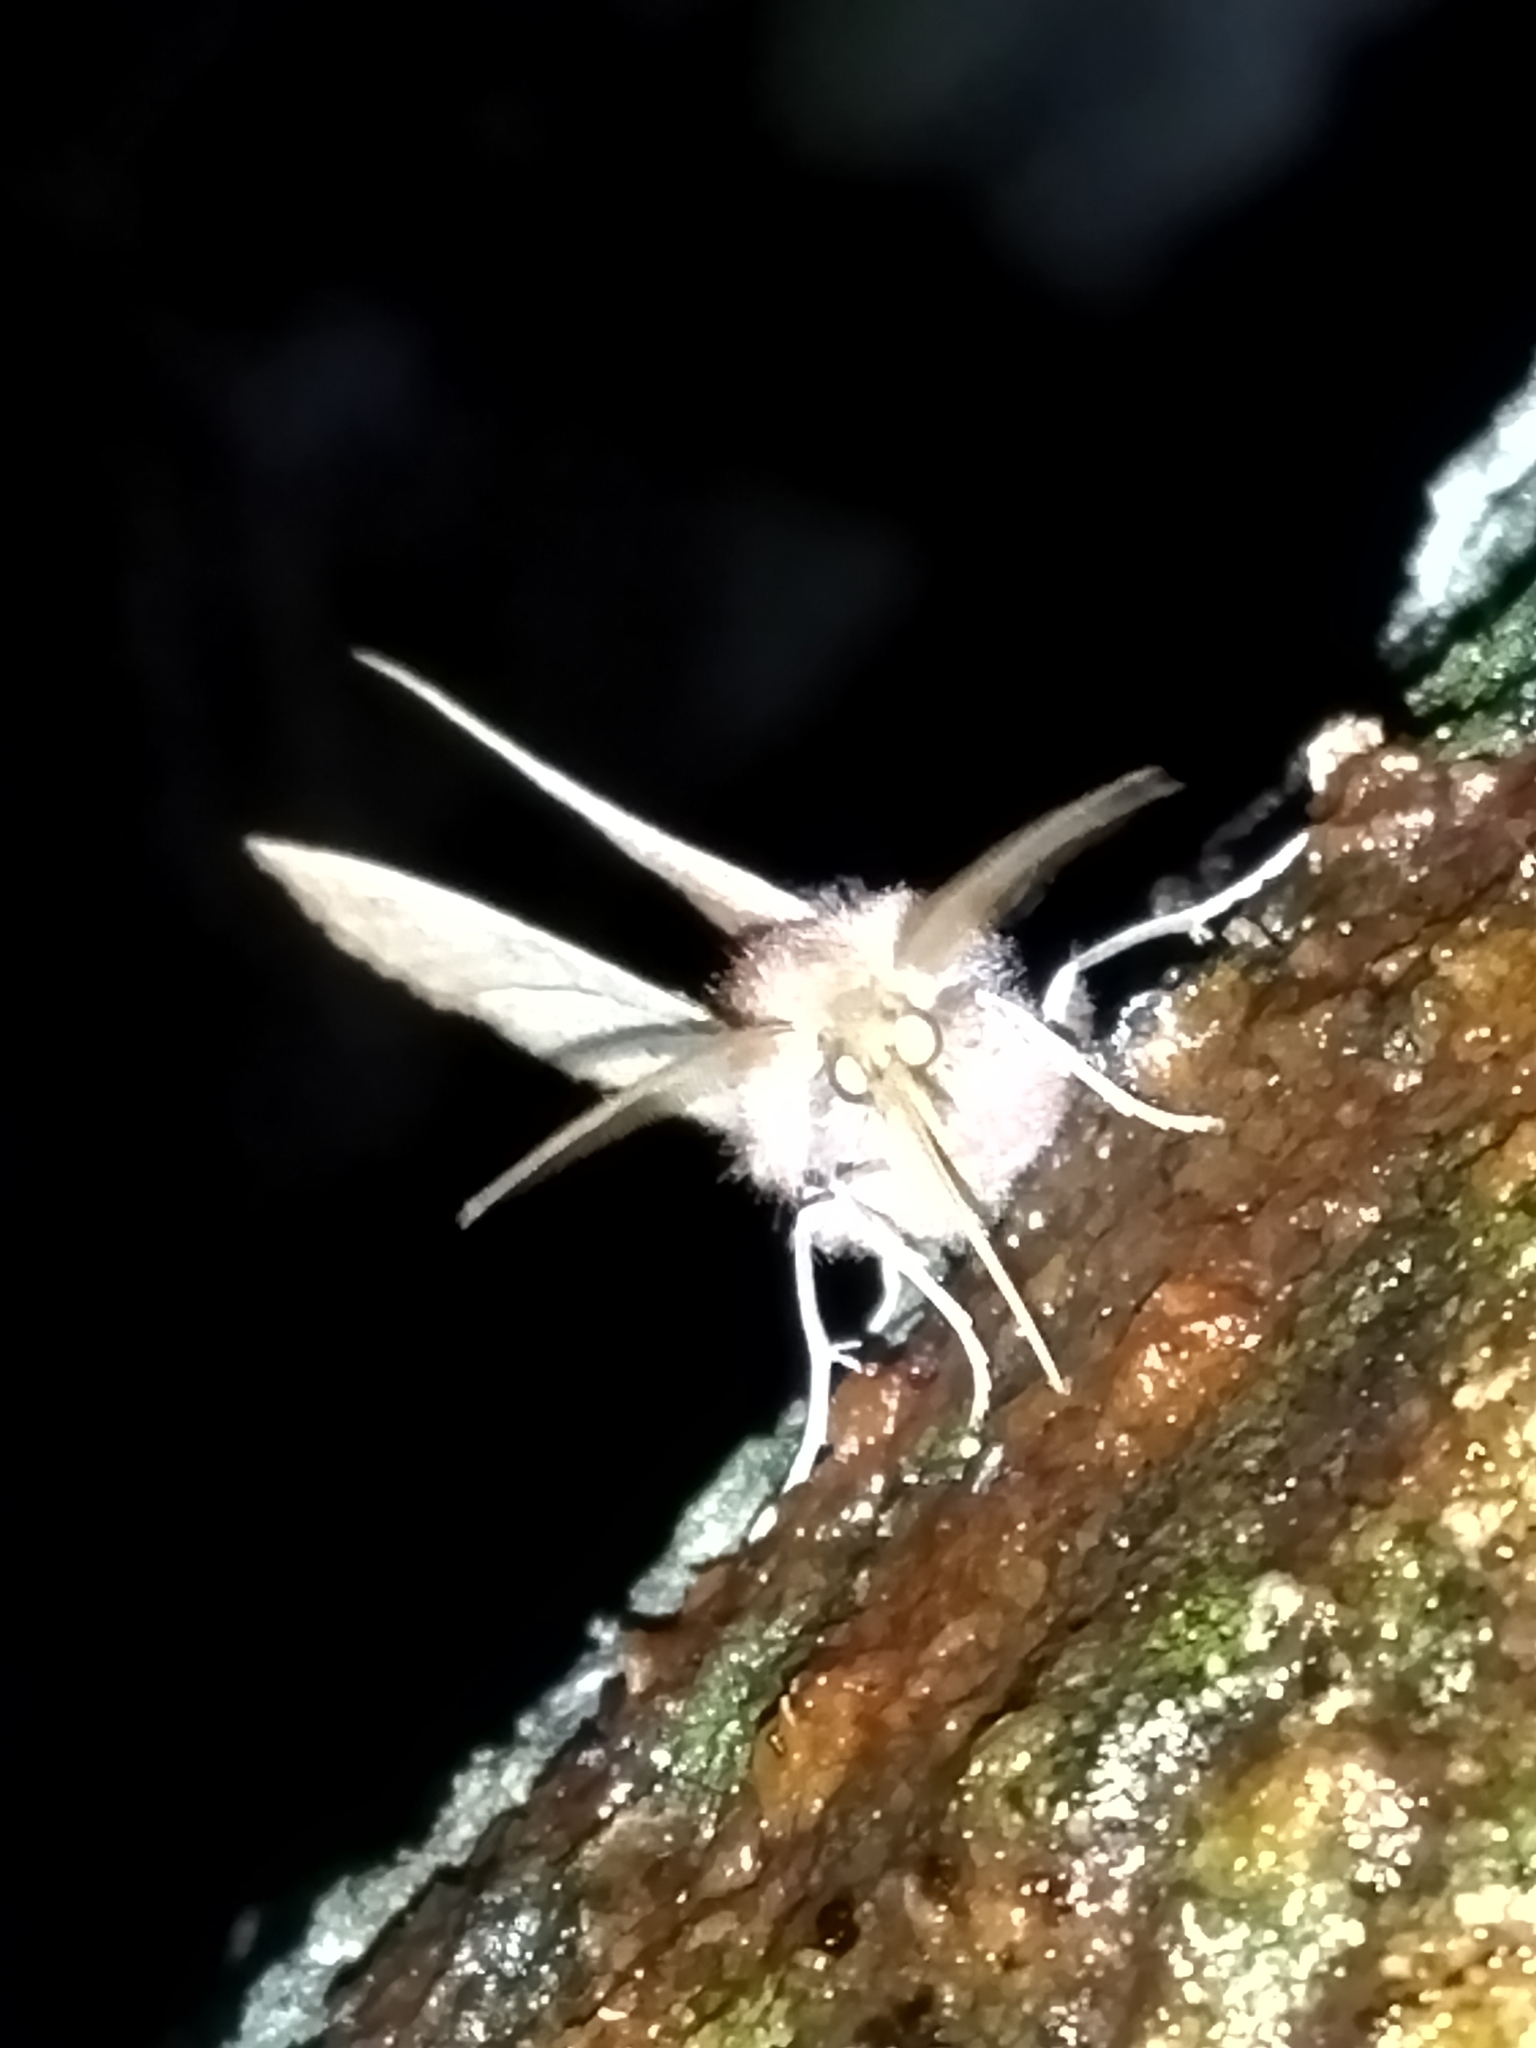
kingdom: Animalia
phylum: Arthropoda
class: Insecta
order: Lepidoptera
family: Geometridae
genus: Dasycorsa
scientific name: Dasycorsa modesta
